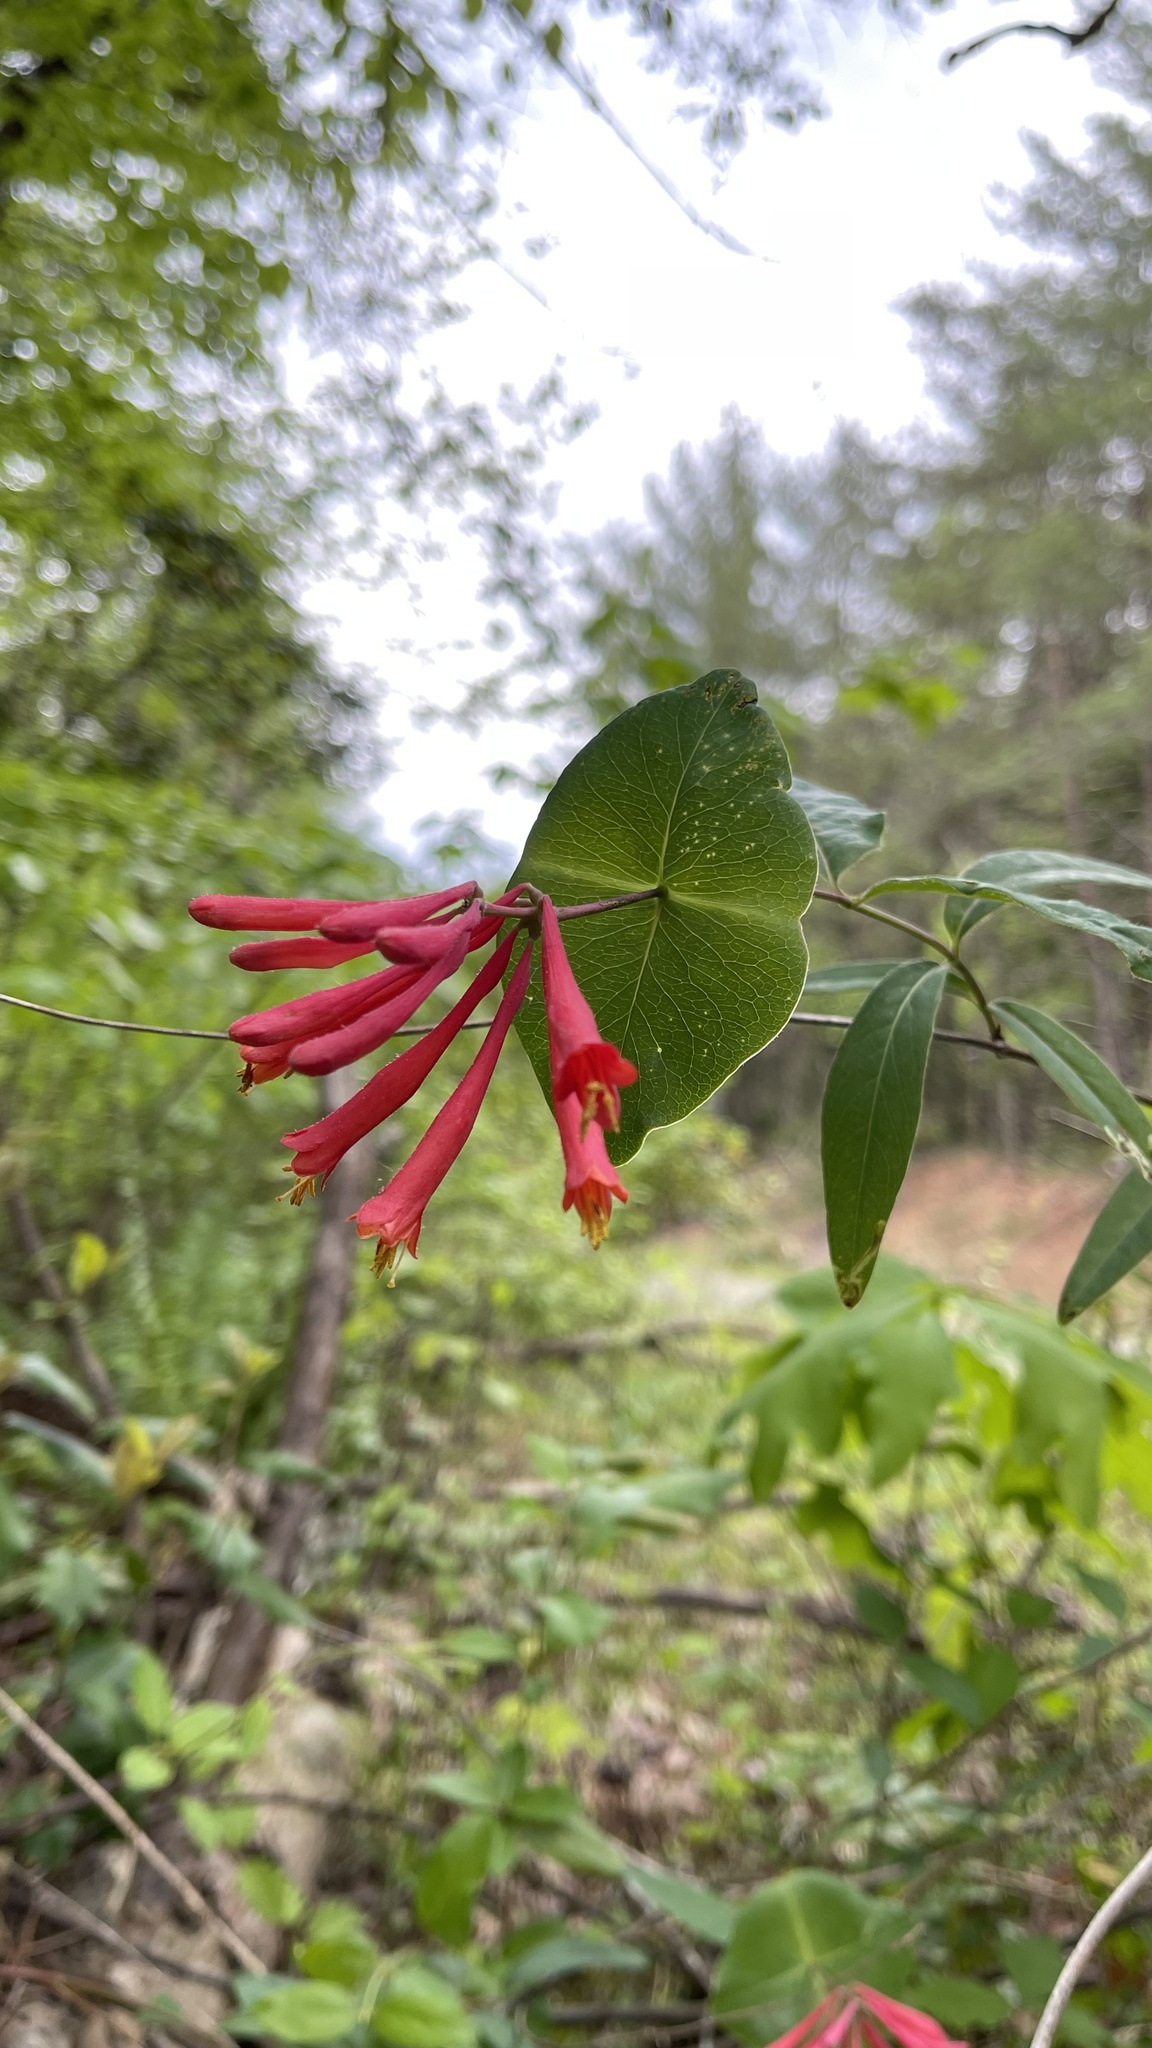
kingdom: Plantae
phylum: Tracheophyta
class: Magnoliopsida
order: Dipsacales
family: Caprifoliaceae
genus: Lonicera
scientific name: Lonicera sempervirens
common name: Coral honeysuckle
